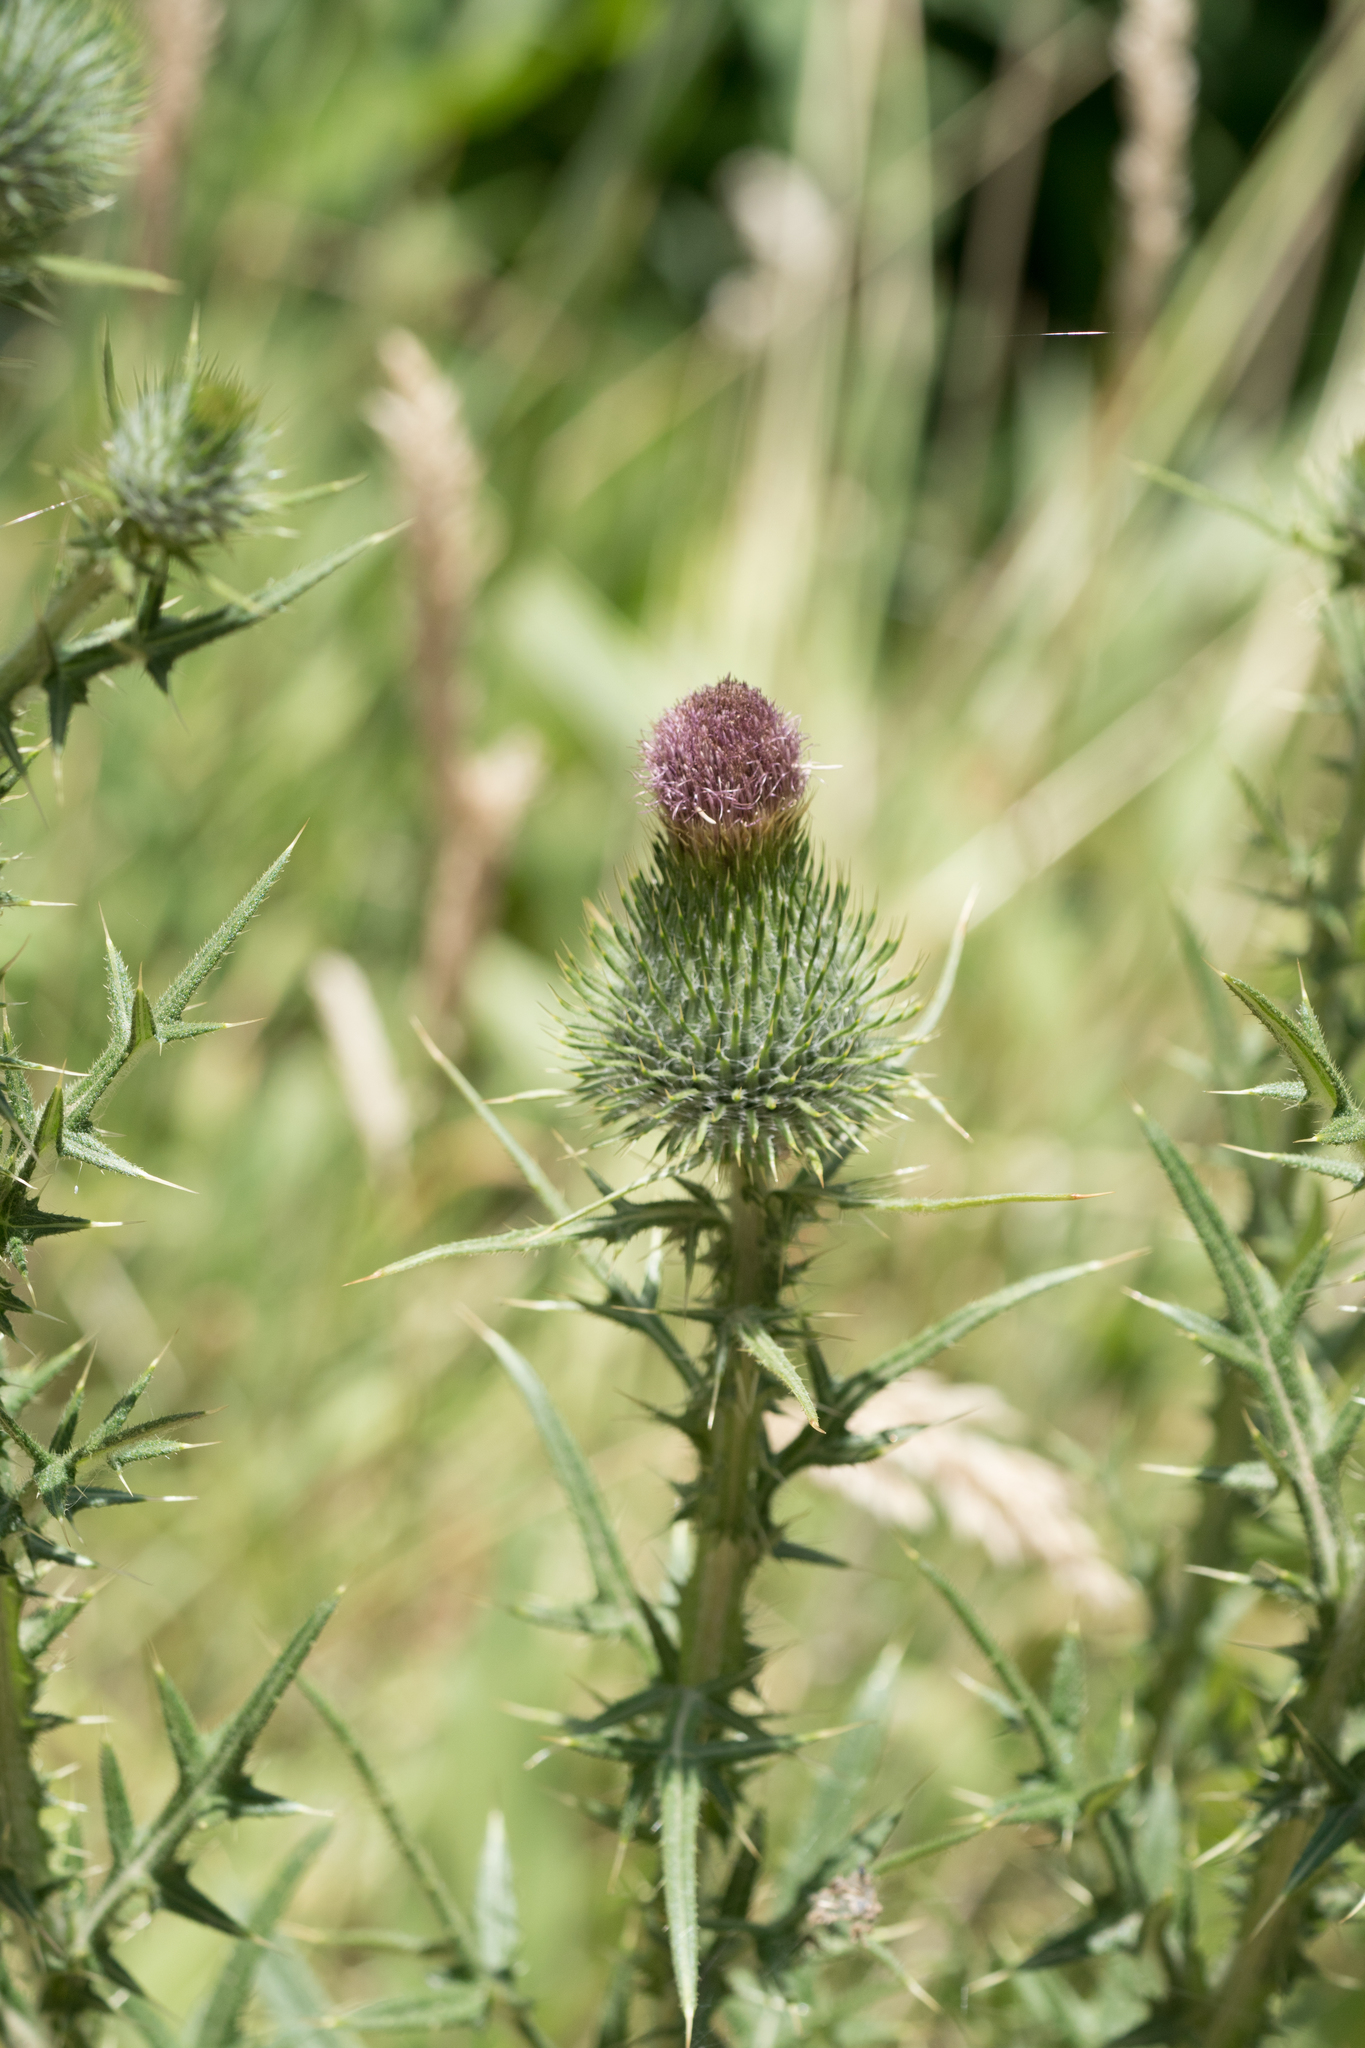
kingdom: Plantae
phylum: Tracheophyta
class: Magnoliopsida
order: Asterales
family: Asteraceae
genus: Cirsium
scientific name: Cirsium vulgare
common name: Bull thistle
